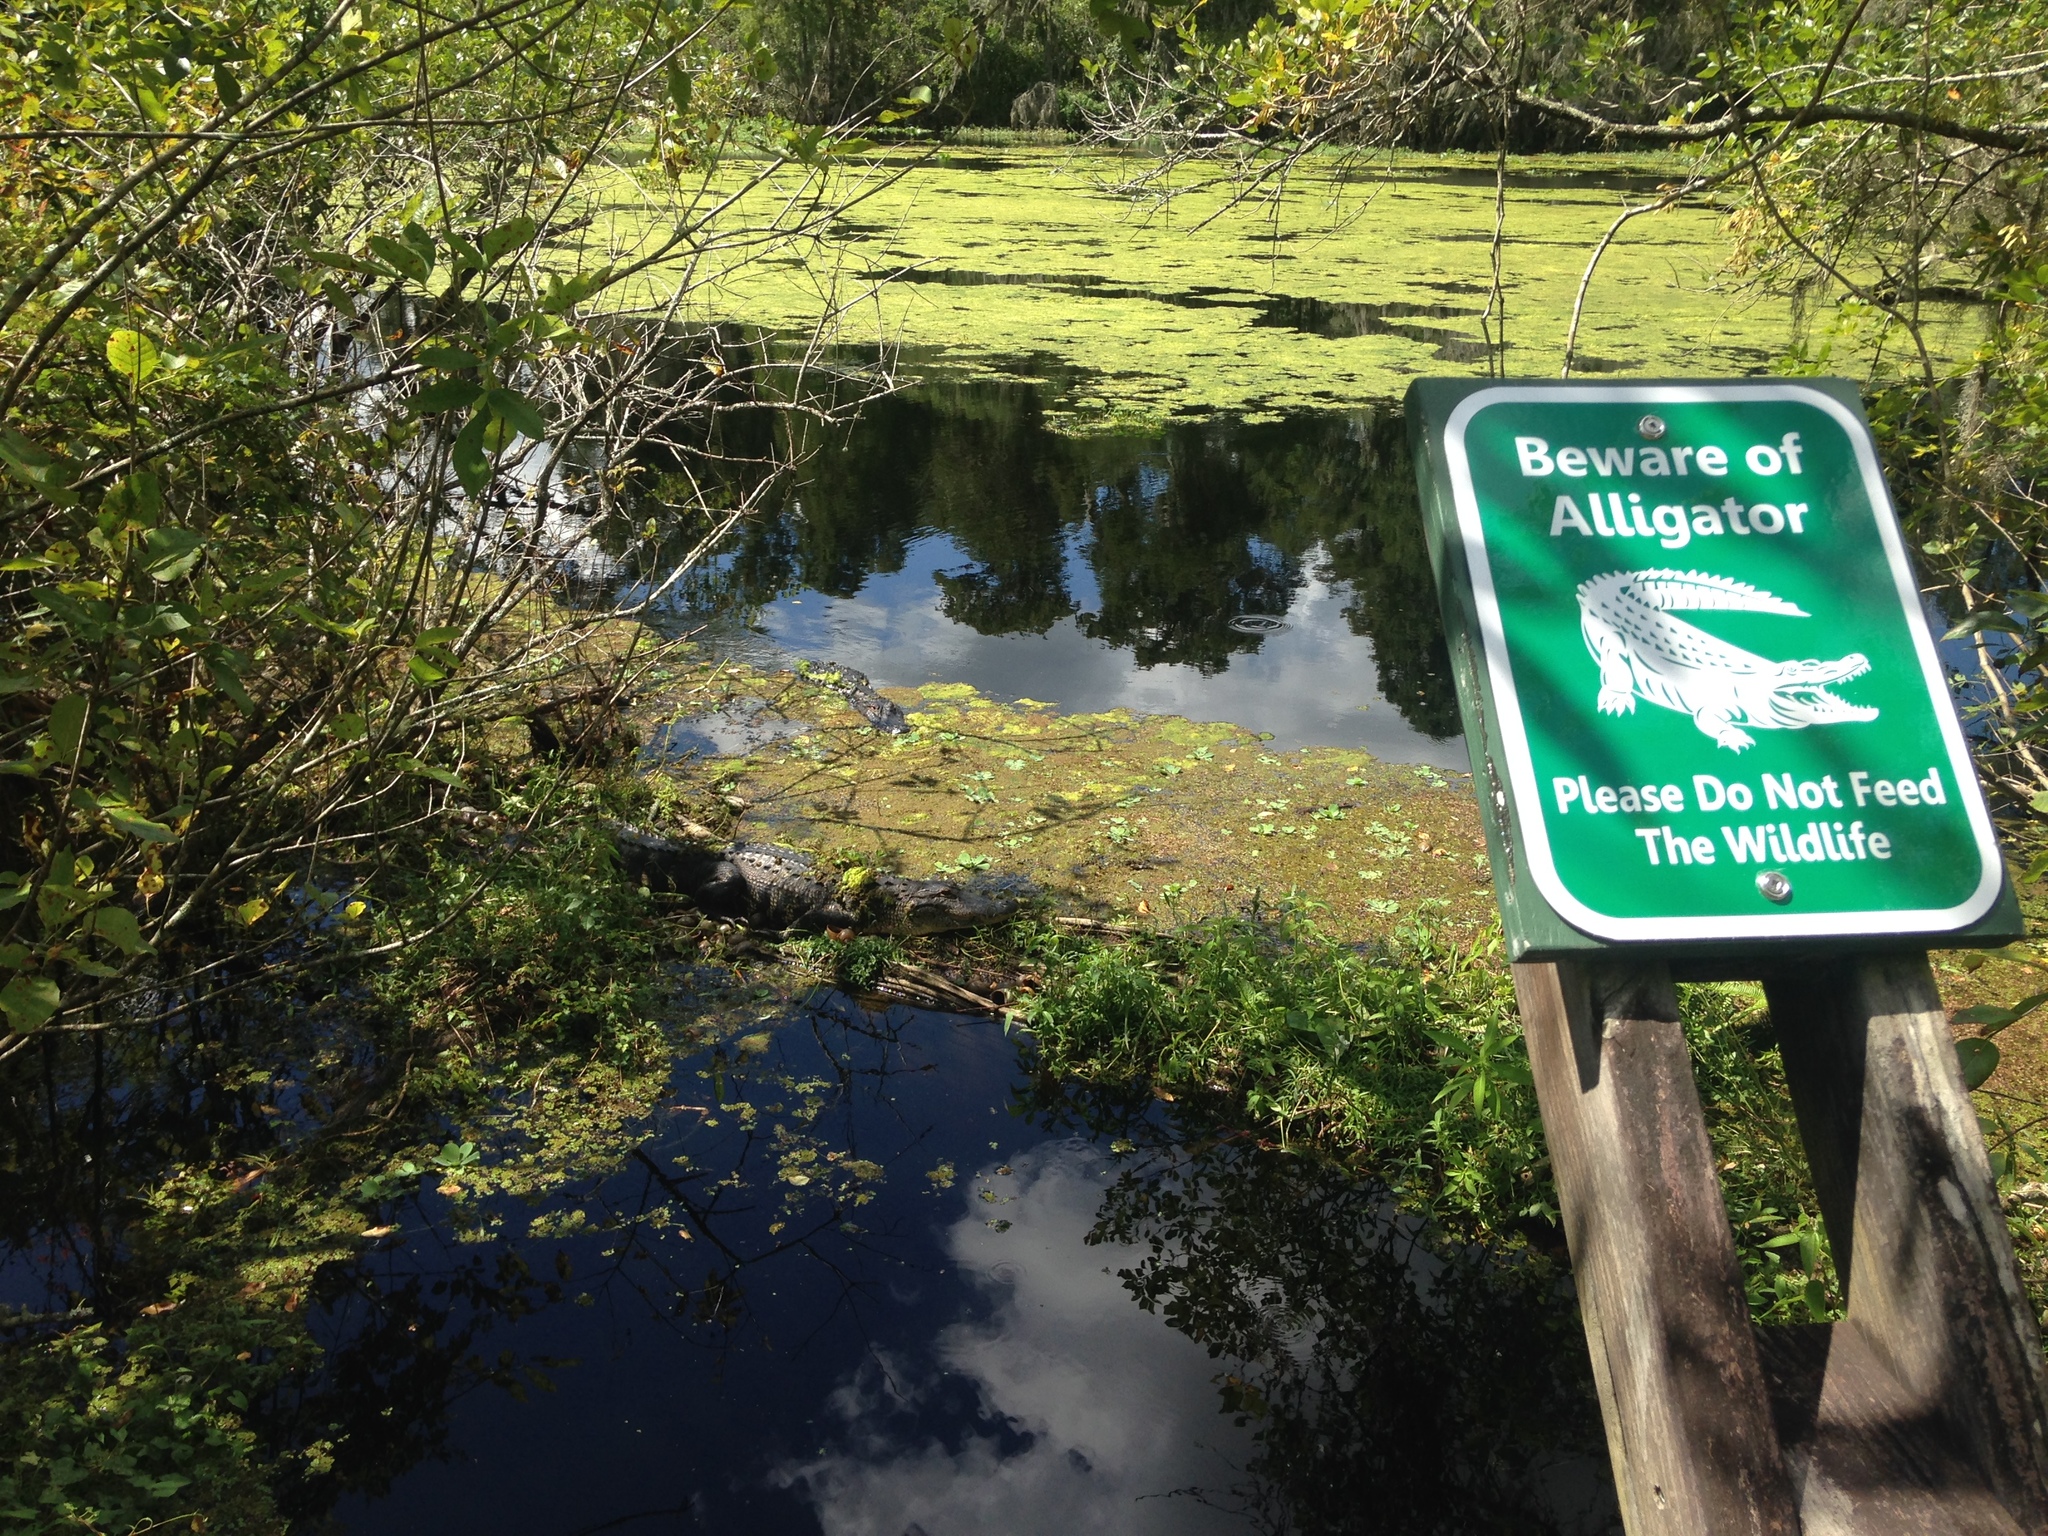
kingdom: Animalia
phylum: Chordata
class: Crocodylia
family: Alligatoridae
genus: Alligator
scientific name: Alligator mississippiensis
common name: American alligator
